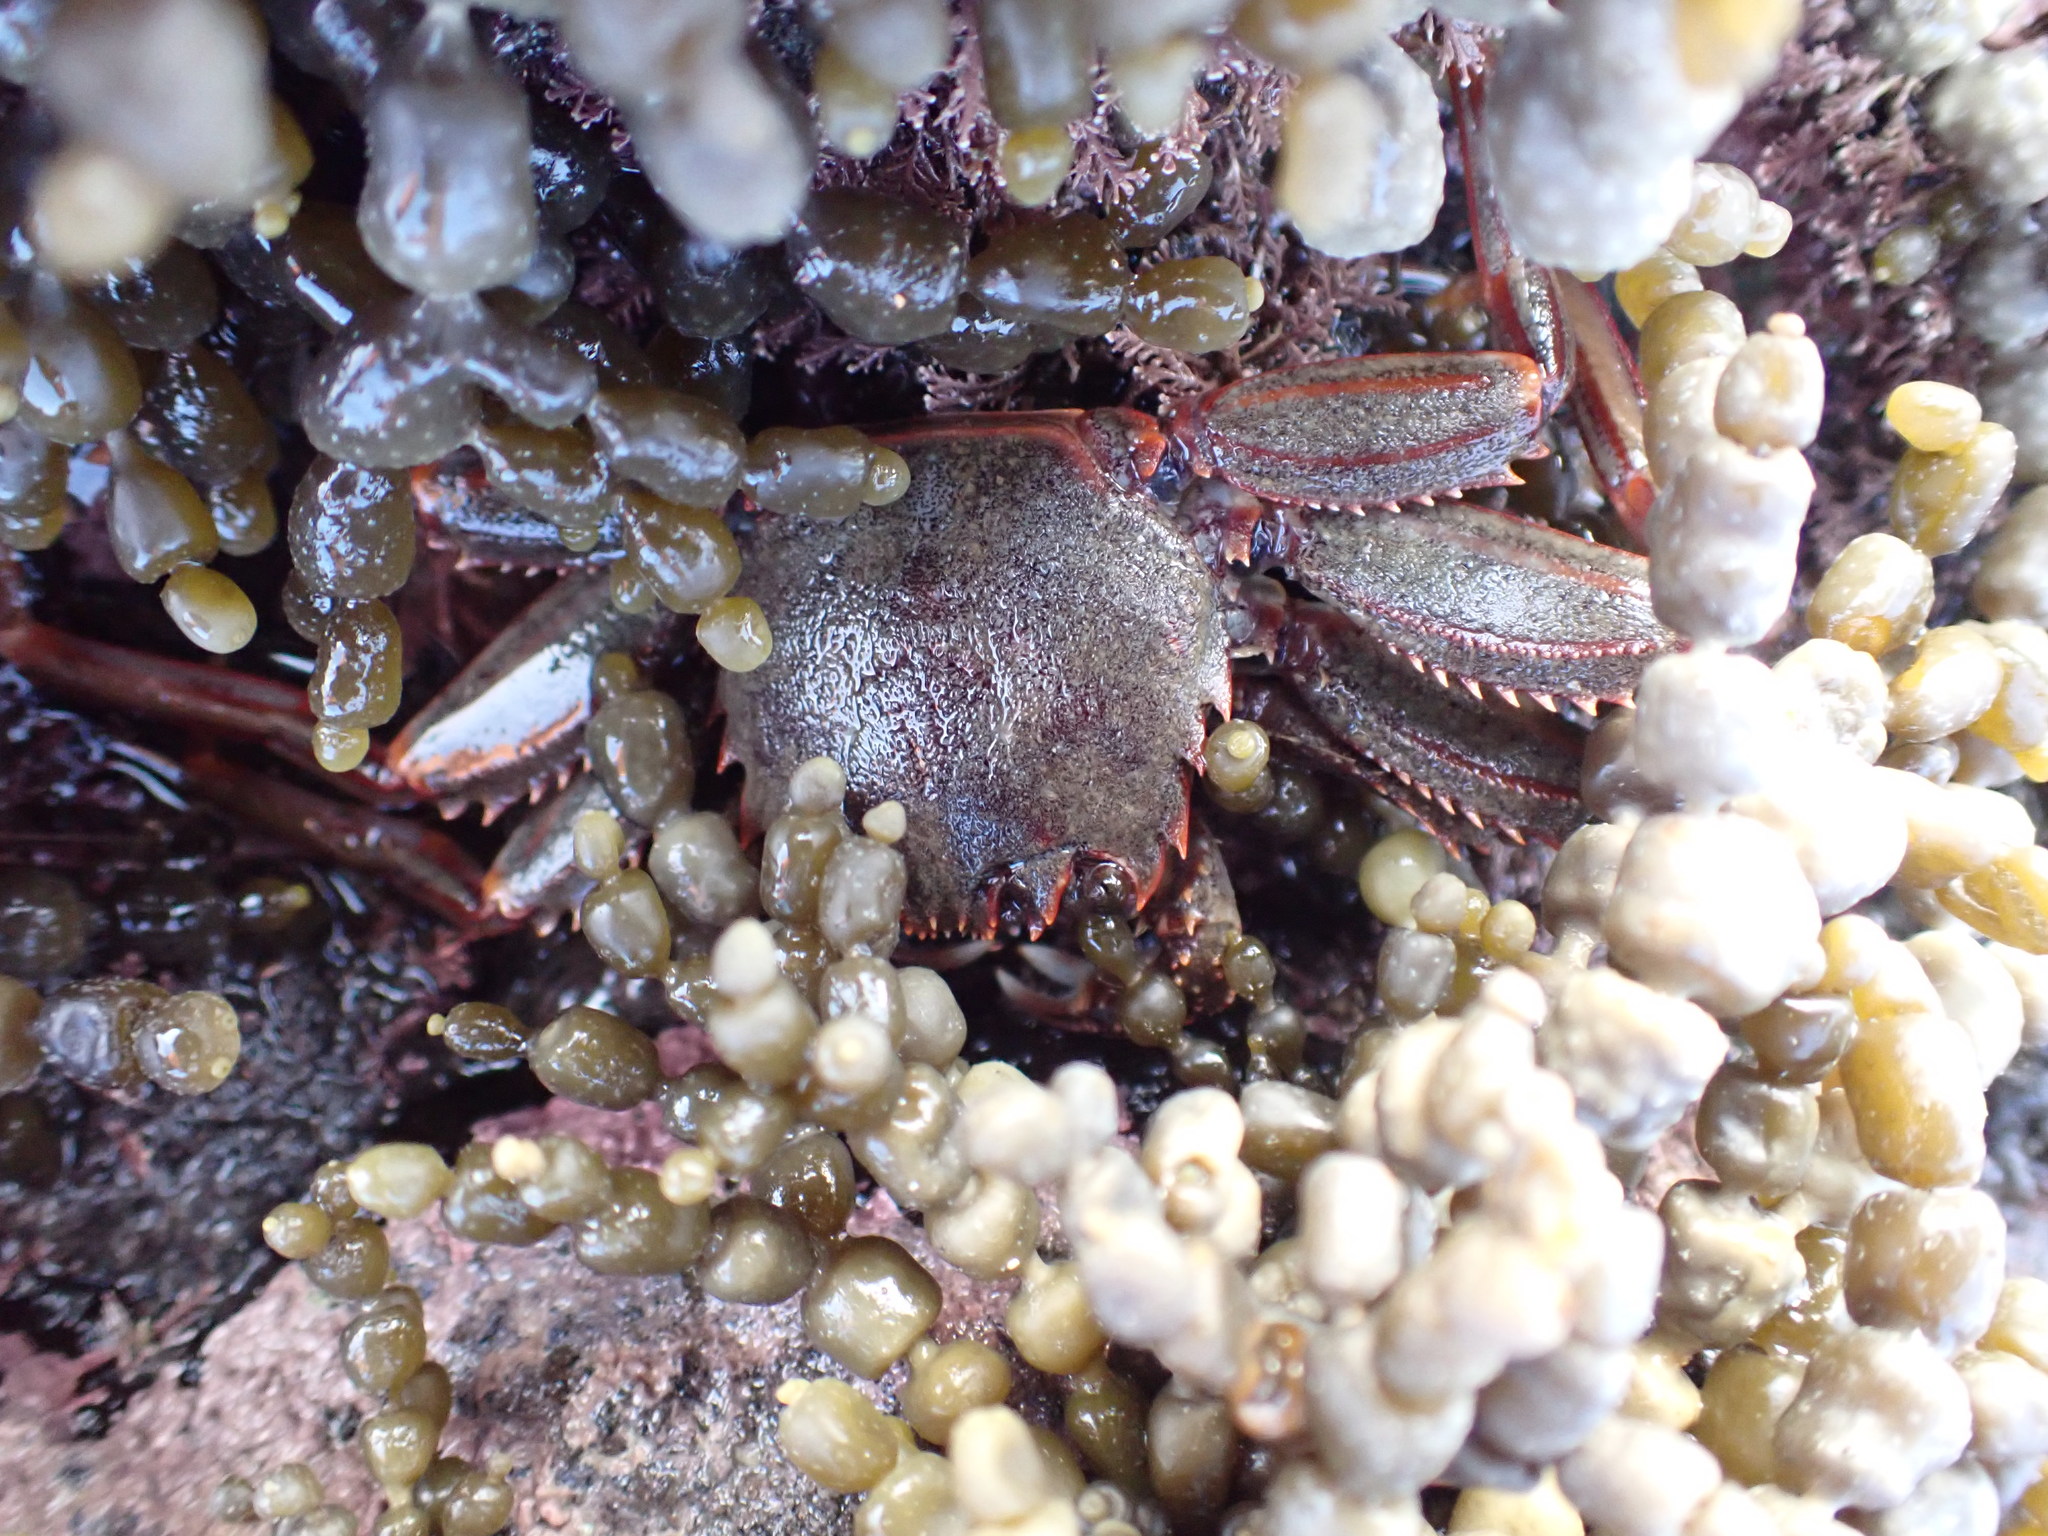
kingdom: Animalia
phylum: Arthropoda
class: Malacostraca
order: Decapoda
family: Plagusiidae
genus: Guinusia
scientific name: Guinusia chabrus
